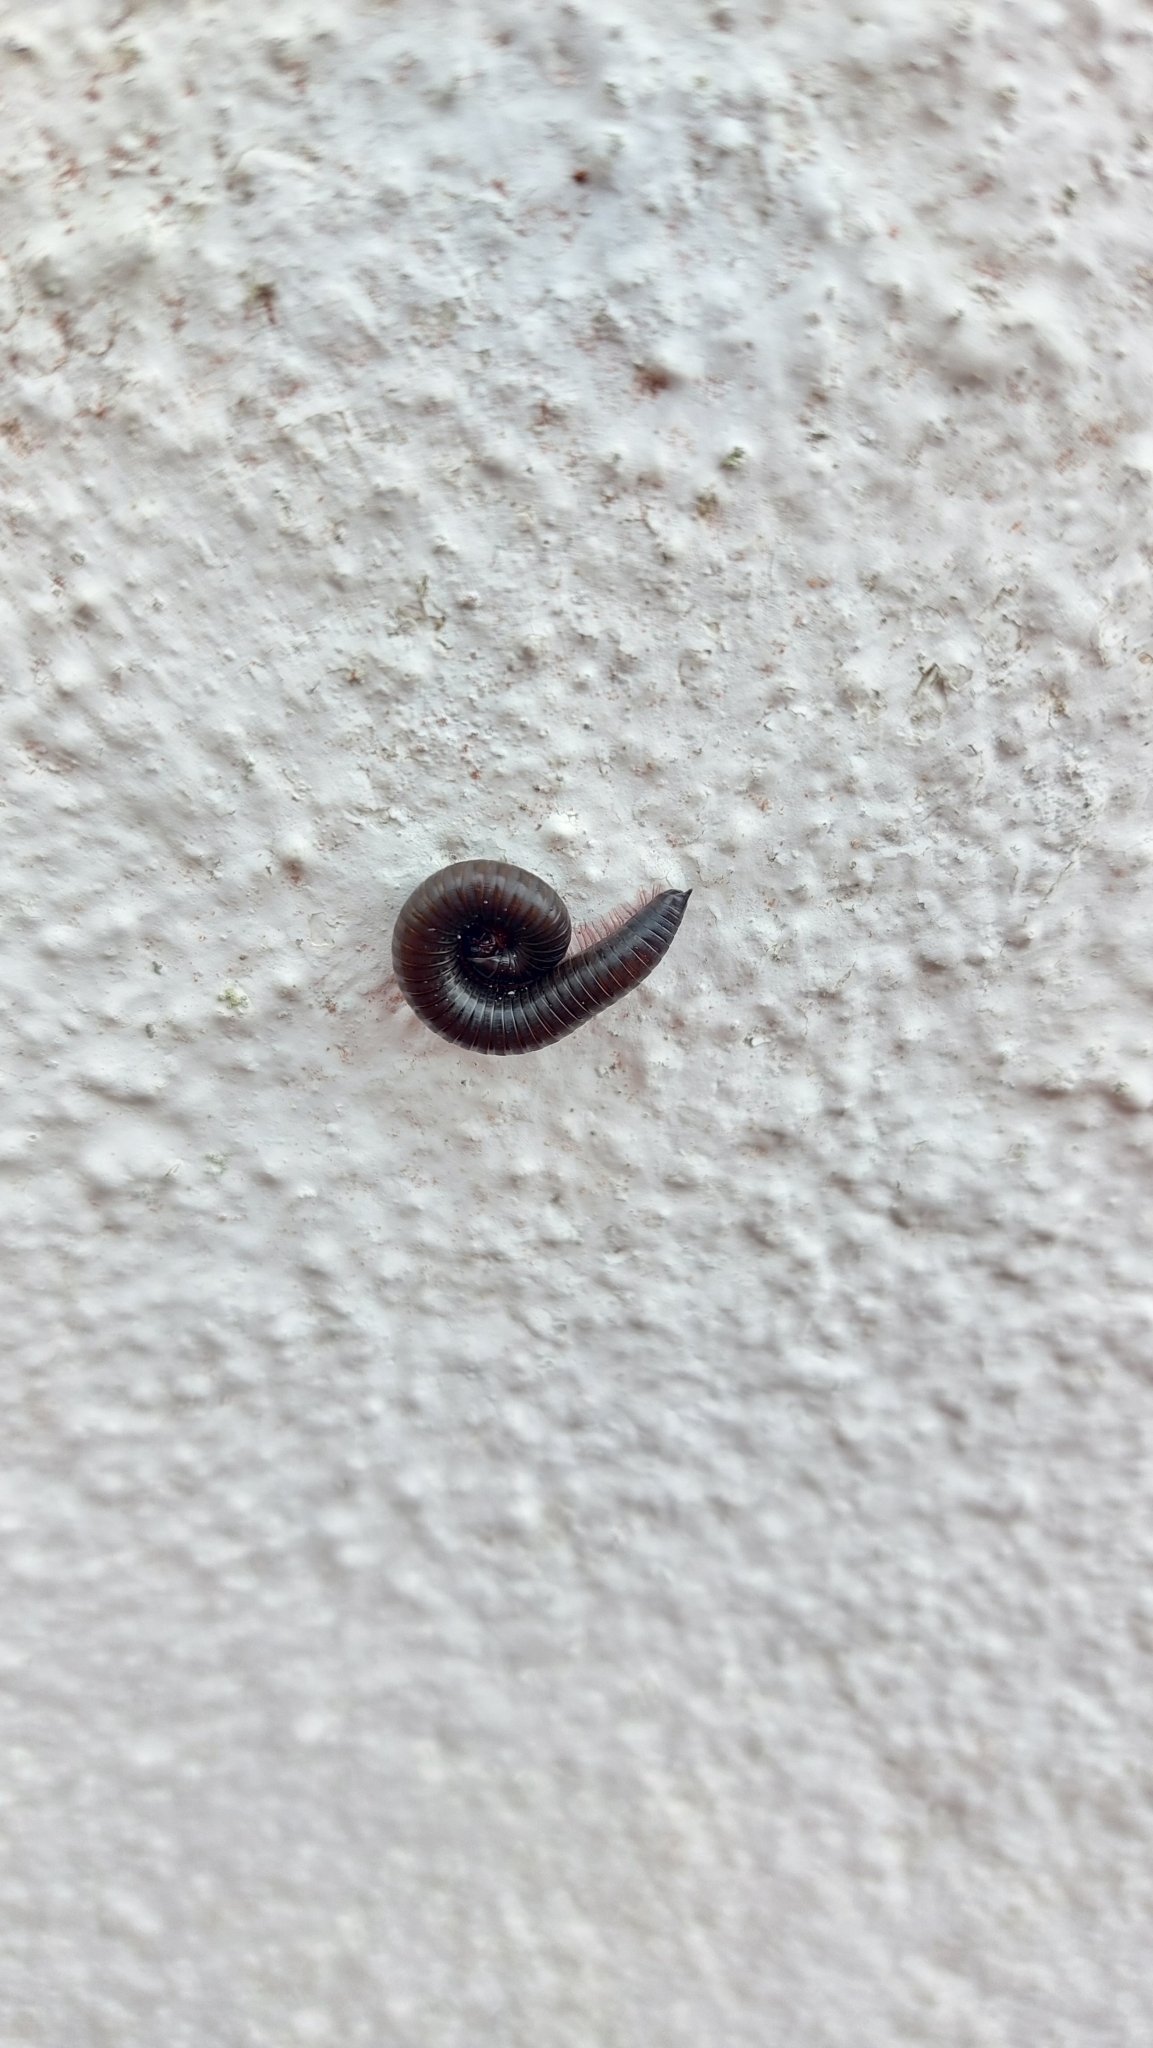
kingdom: Animalia
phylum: Arthropoda
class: Diplopoda
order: Julida
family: Julidae
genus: Ommatoiulus
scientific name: Ommatoiulus moreleti
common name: Portuguese millipede
